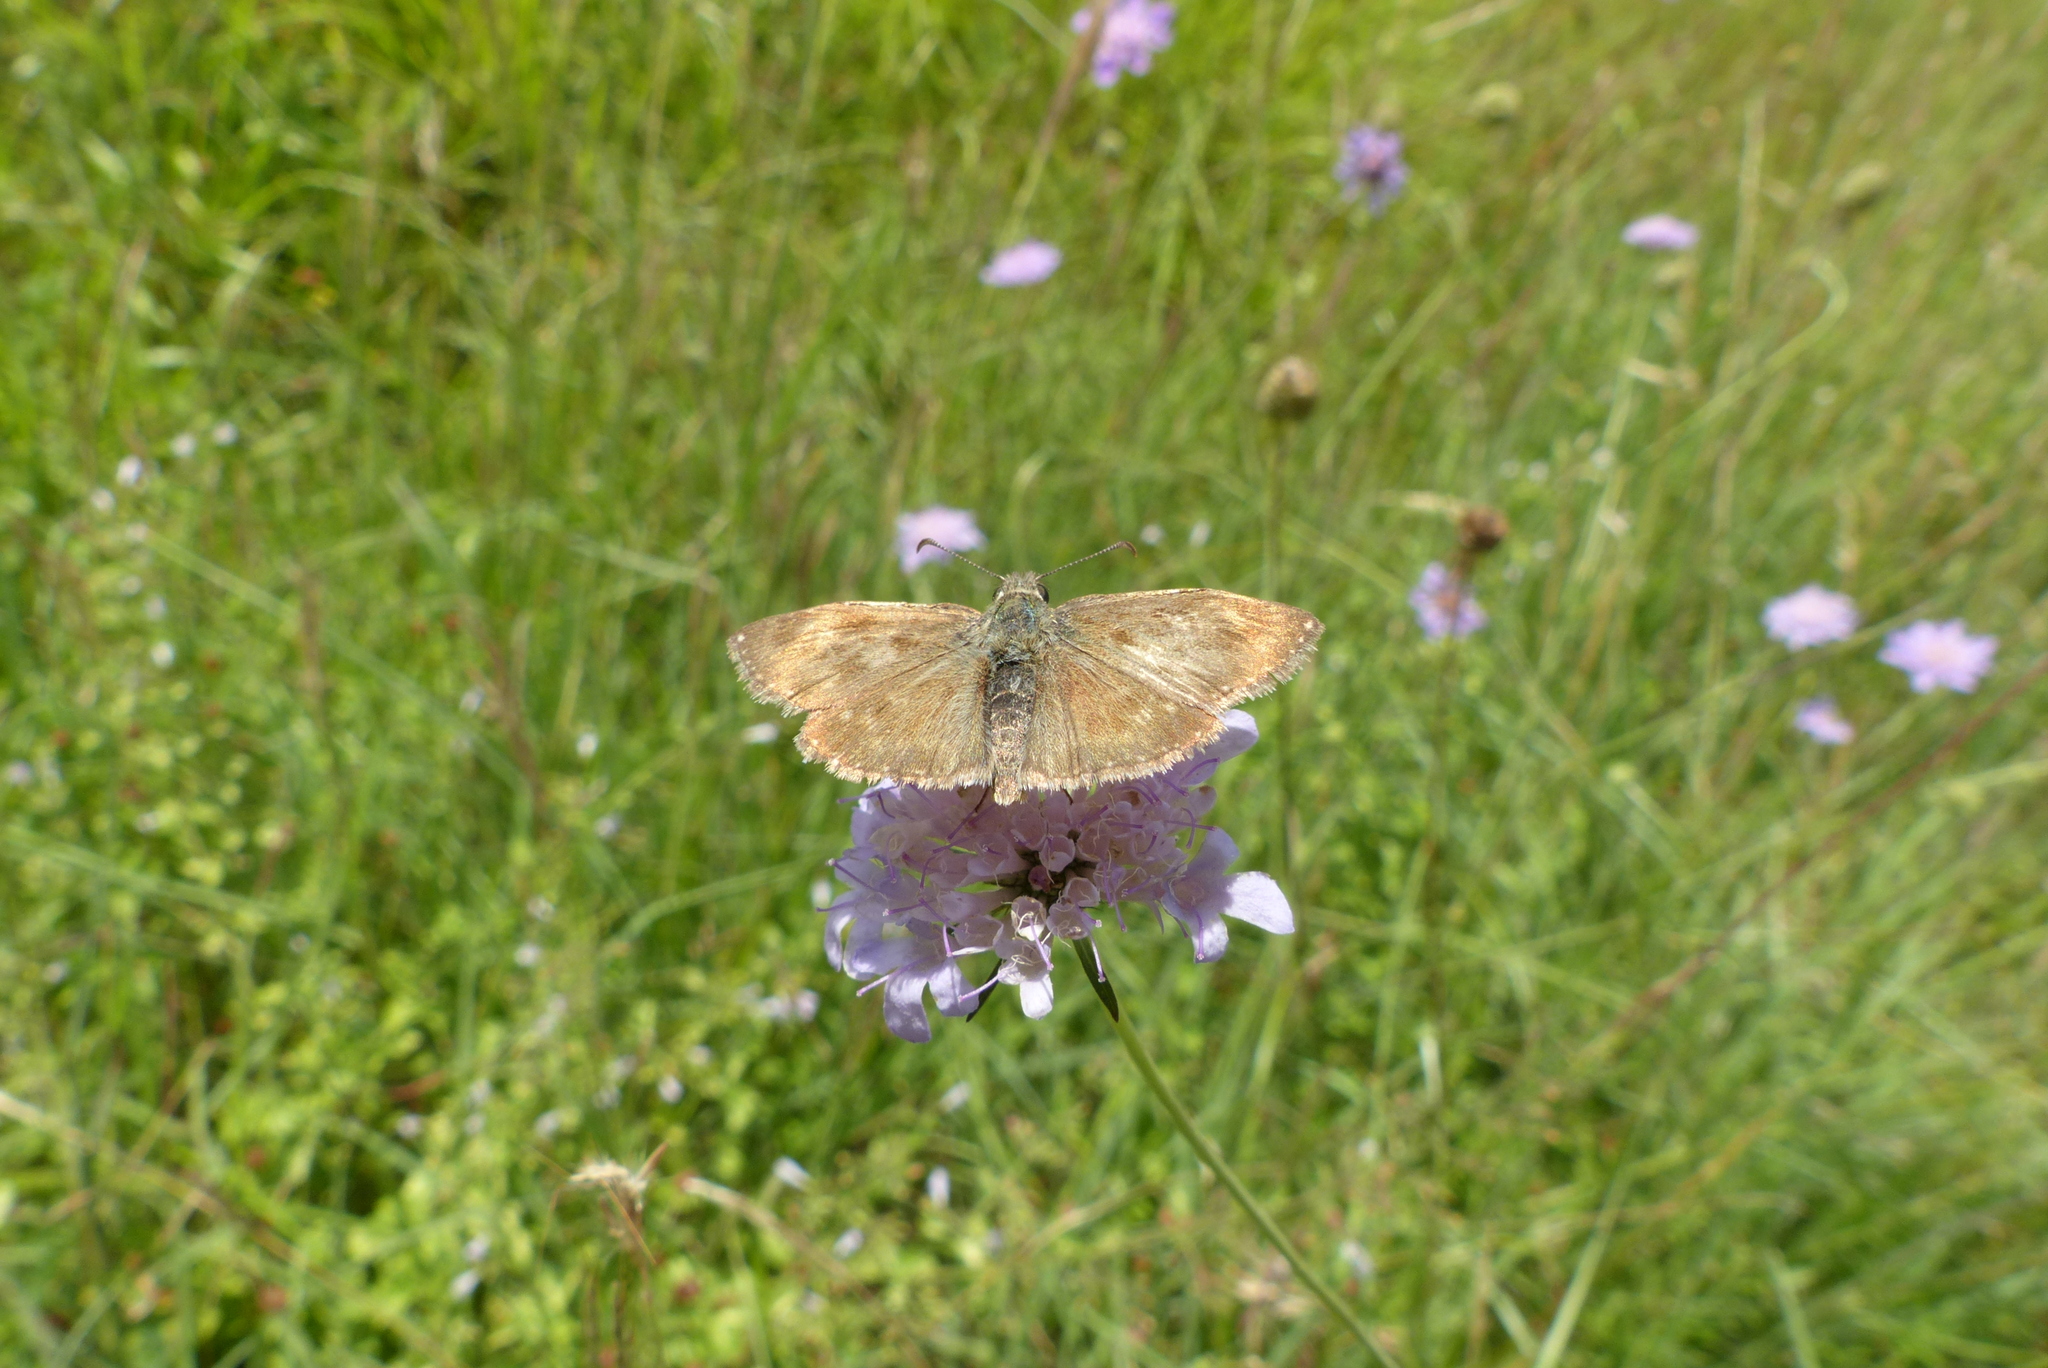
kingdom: Animalia
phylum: Arthropoda
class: Insecta
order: Lepidoptera
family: Hesperiidae
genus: Erynnis
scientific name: Erynnis tages
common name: Dingy skipper
